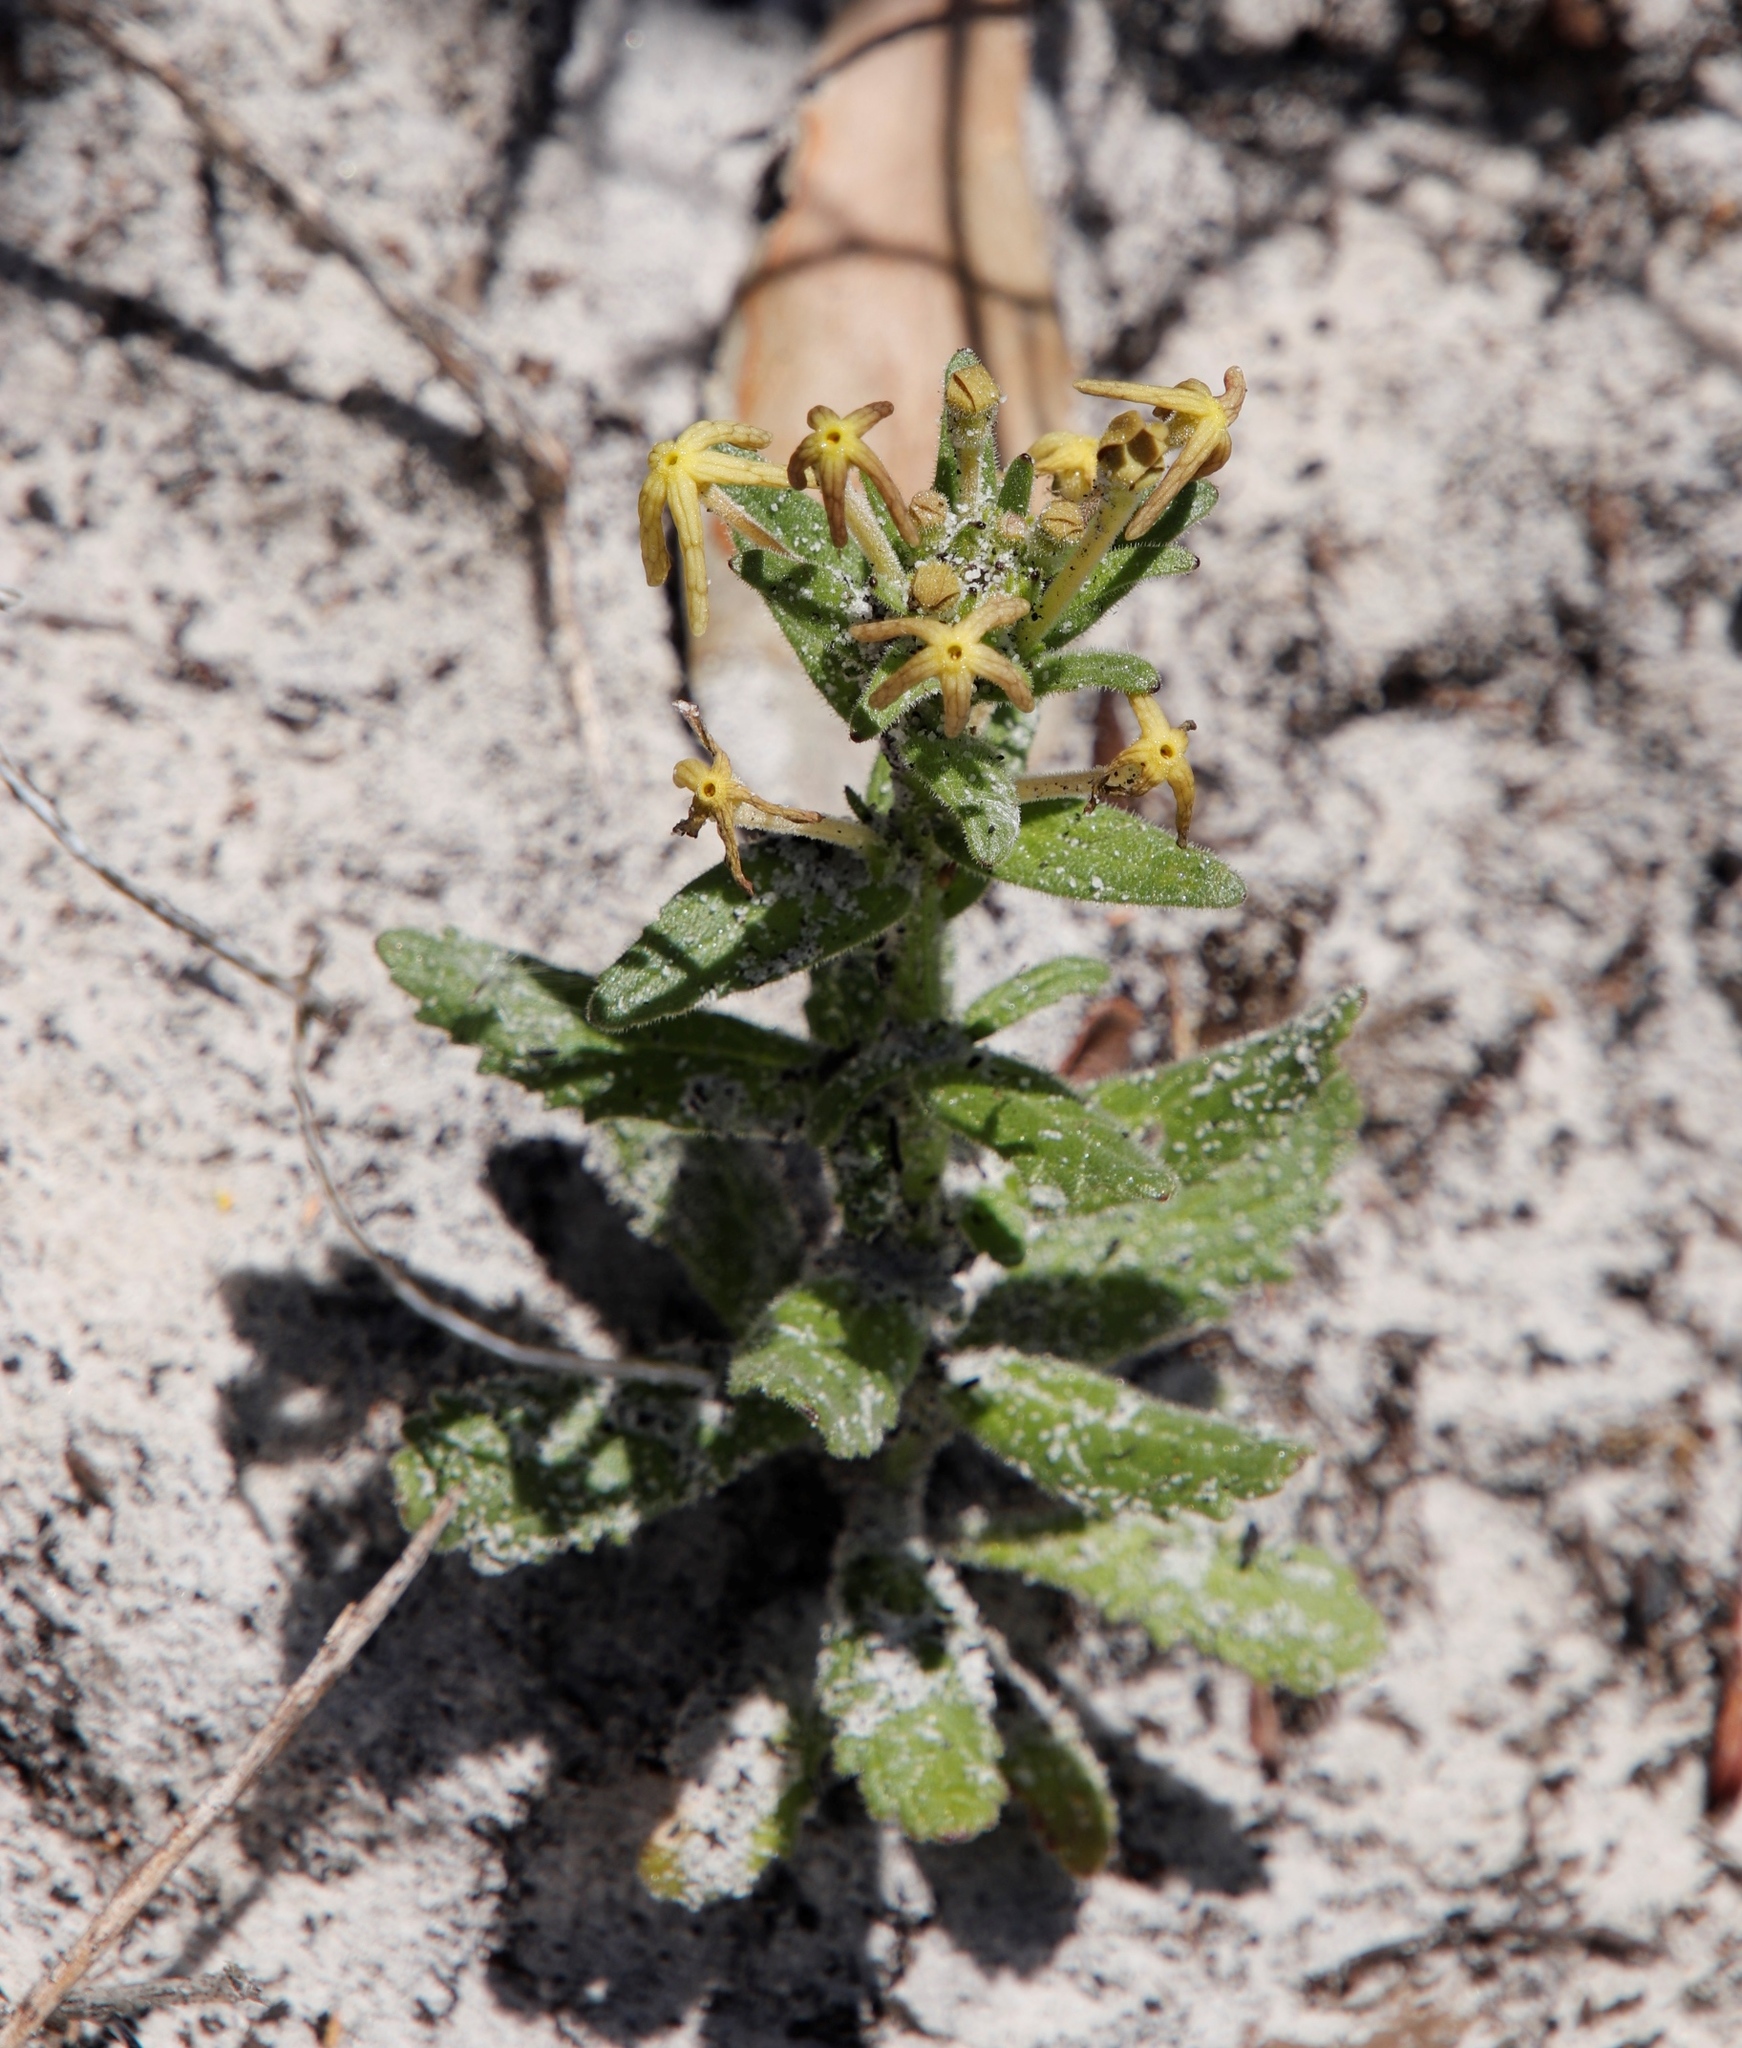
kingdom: Plantae
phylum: Tracheophyta
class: Magnoliopsida
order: Lamiales
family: Scrophulariaceae
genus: Lyperia
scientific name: Lyperia tristis
